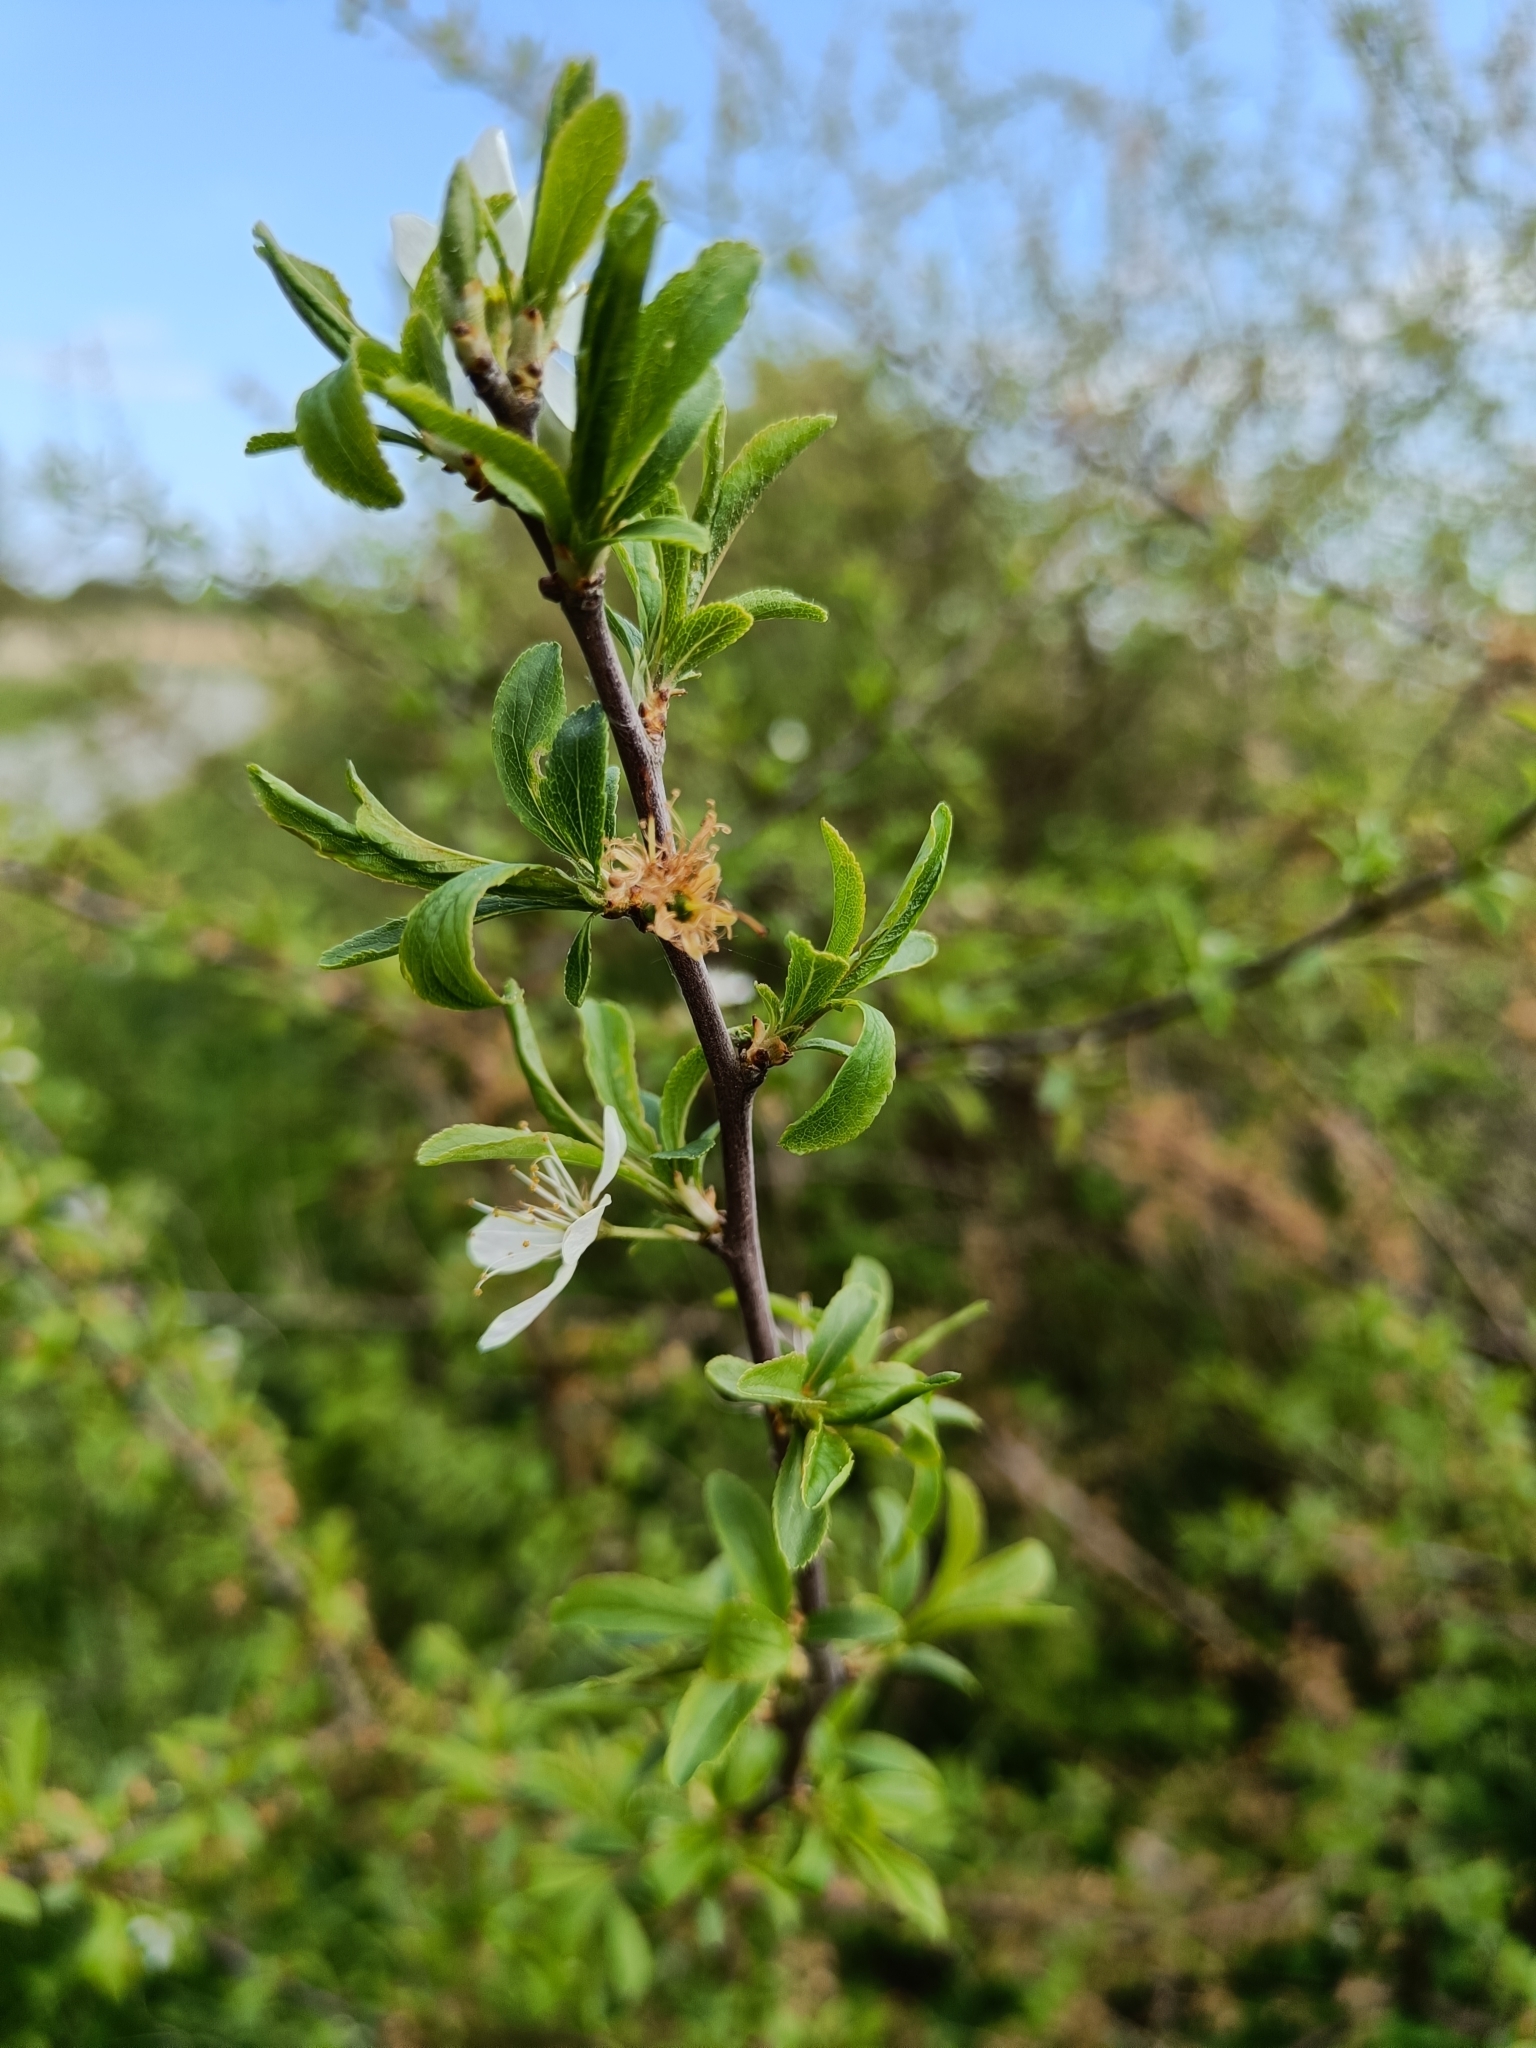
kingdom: Plantae
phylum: Tracheophyta
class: Magnoliopsida
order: Rosales
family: Rosaceae
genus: Prunus
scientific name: Prunus spinosa
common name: Blackthorn
